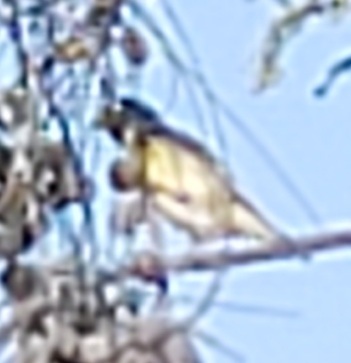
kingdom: Animalia
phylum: Chordata
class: Aves
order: Passeriformes
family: Fringillidae
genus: Spinus
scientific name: Spinus psaltria
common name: Lesser goldfinch
